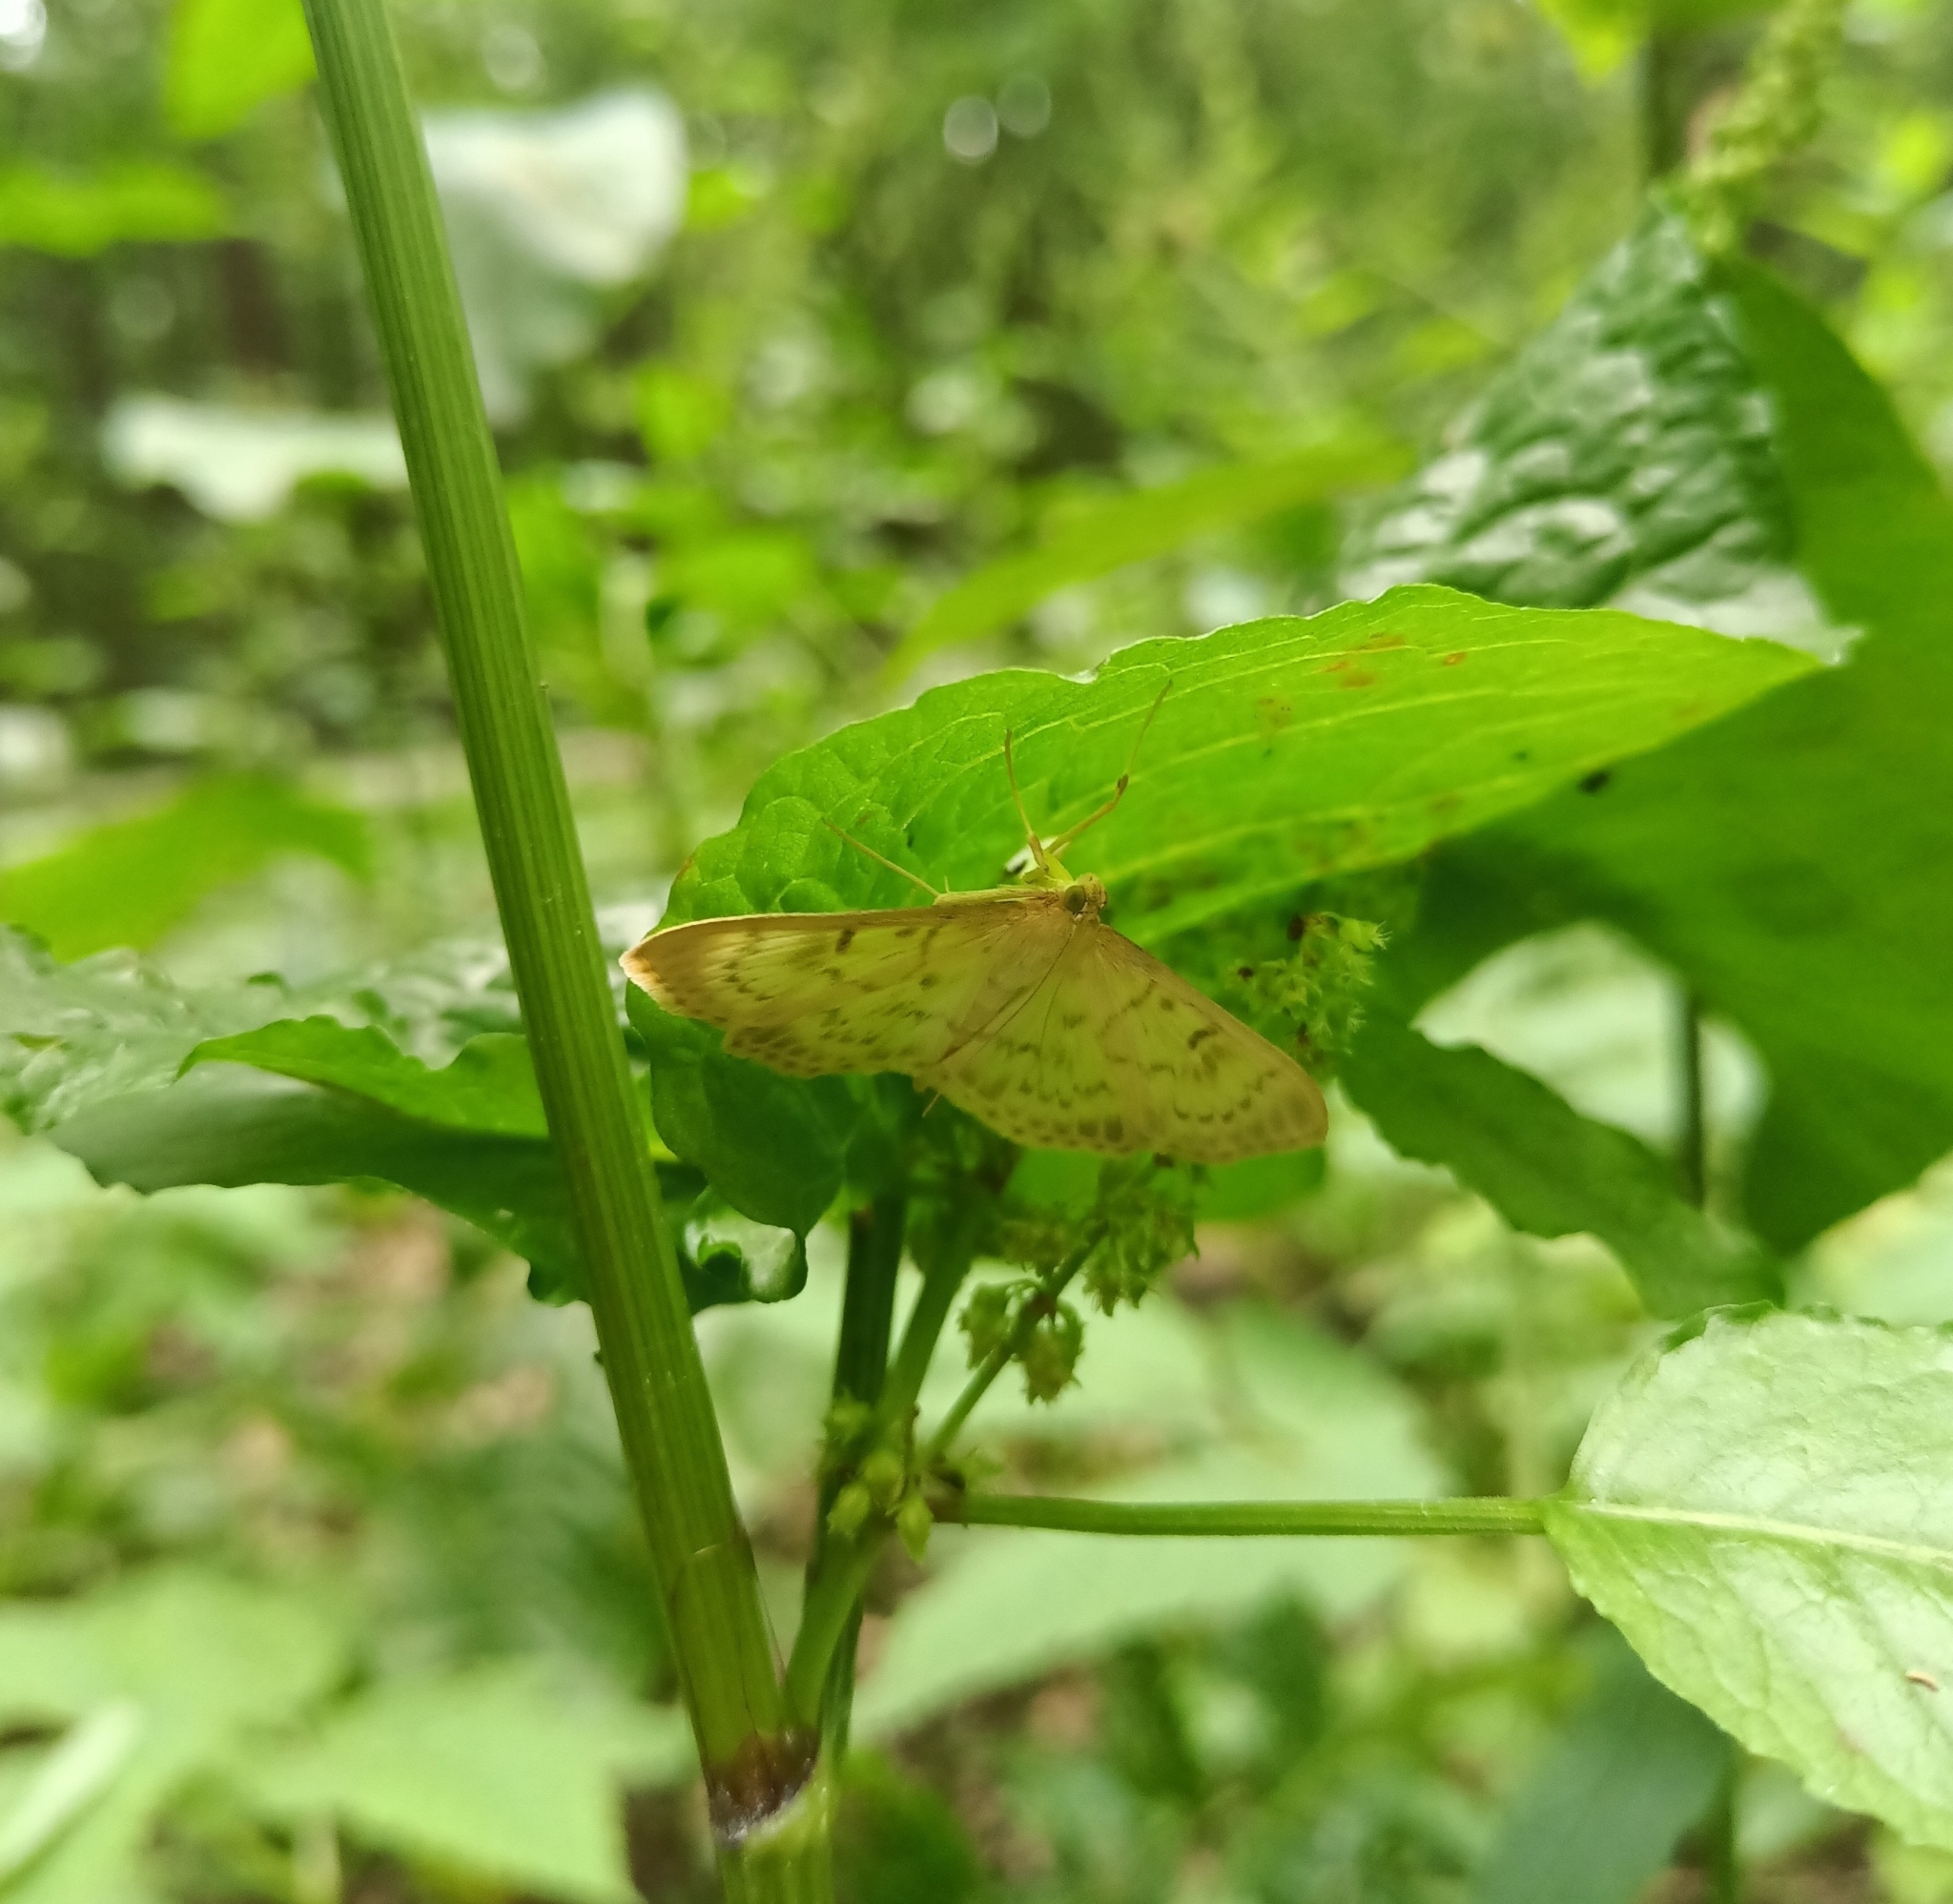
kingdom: Animalia
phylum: Arthropoda
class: Insecta
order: Lepidoptera
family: Crambidae
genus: Patania
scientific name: Patania ruralis
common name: Mother of pearl
